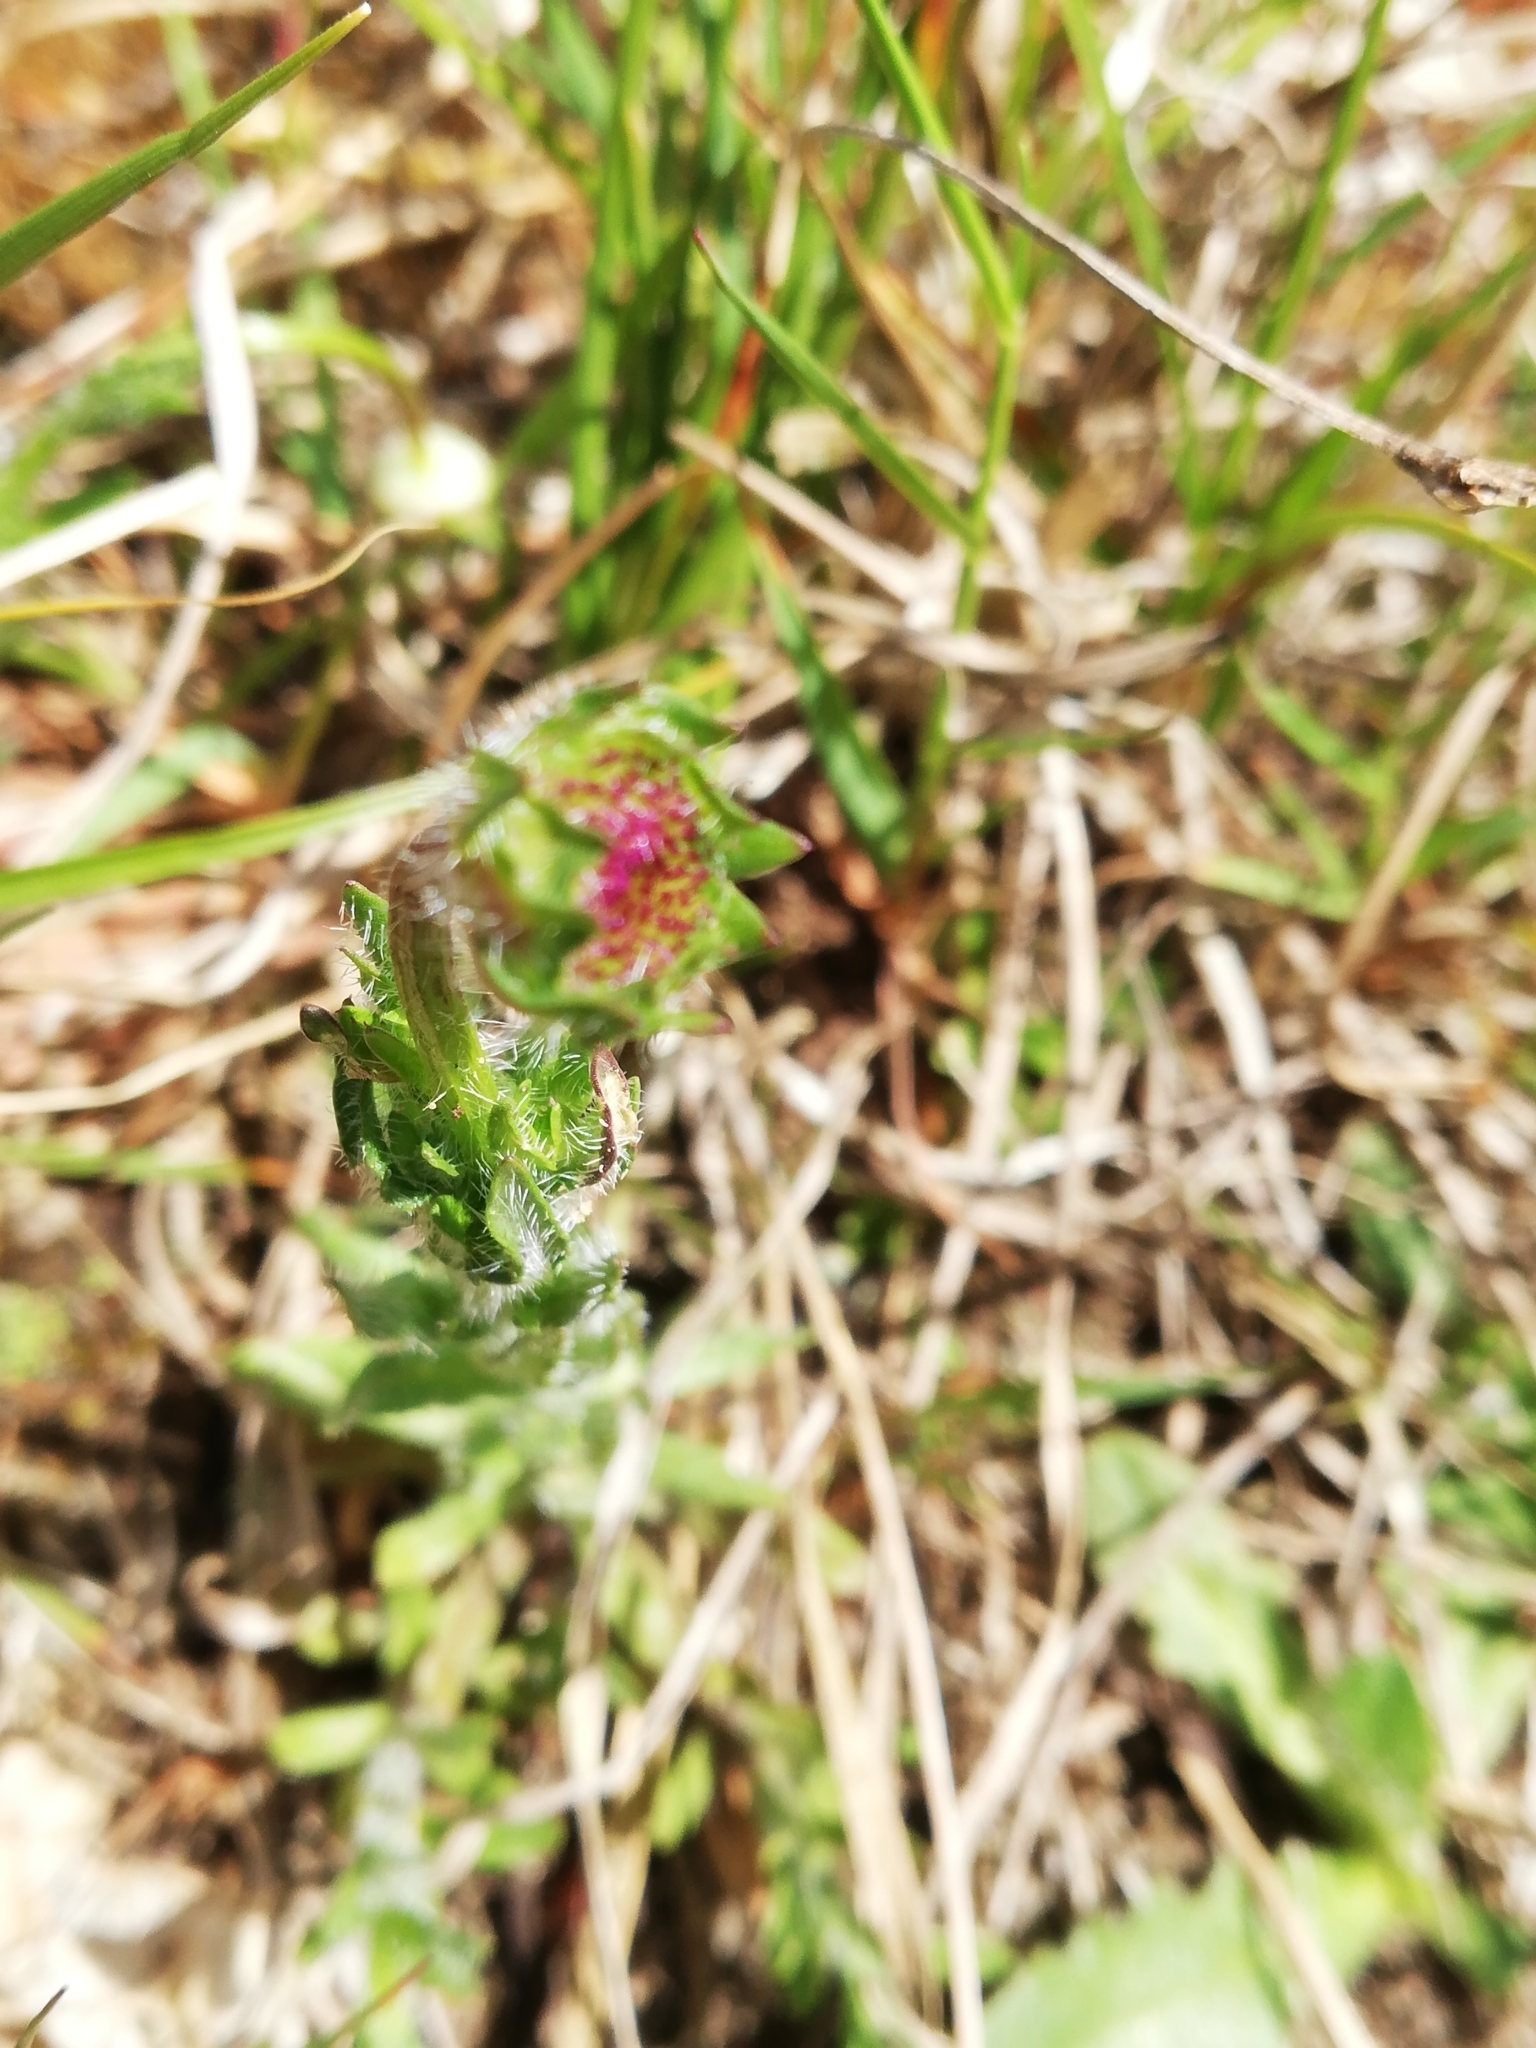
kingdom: Plantae
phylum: Tracheophyta
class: Magnoliopsida
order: Asterales
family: Campanulaceae
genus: Jasione
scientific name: Jasione montana
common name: Sheep's-bit
